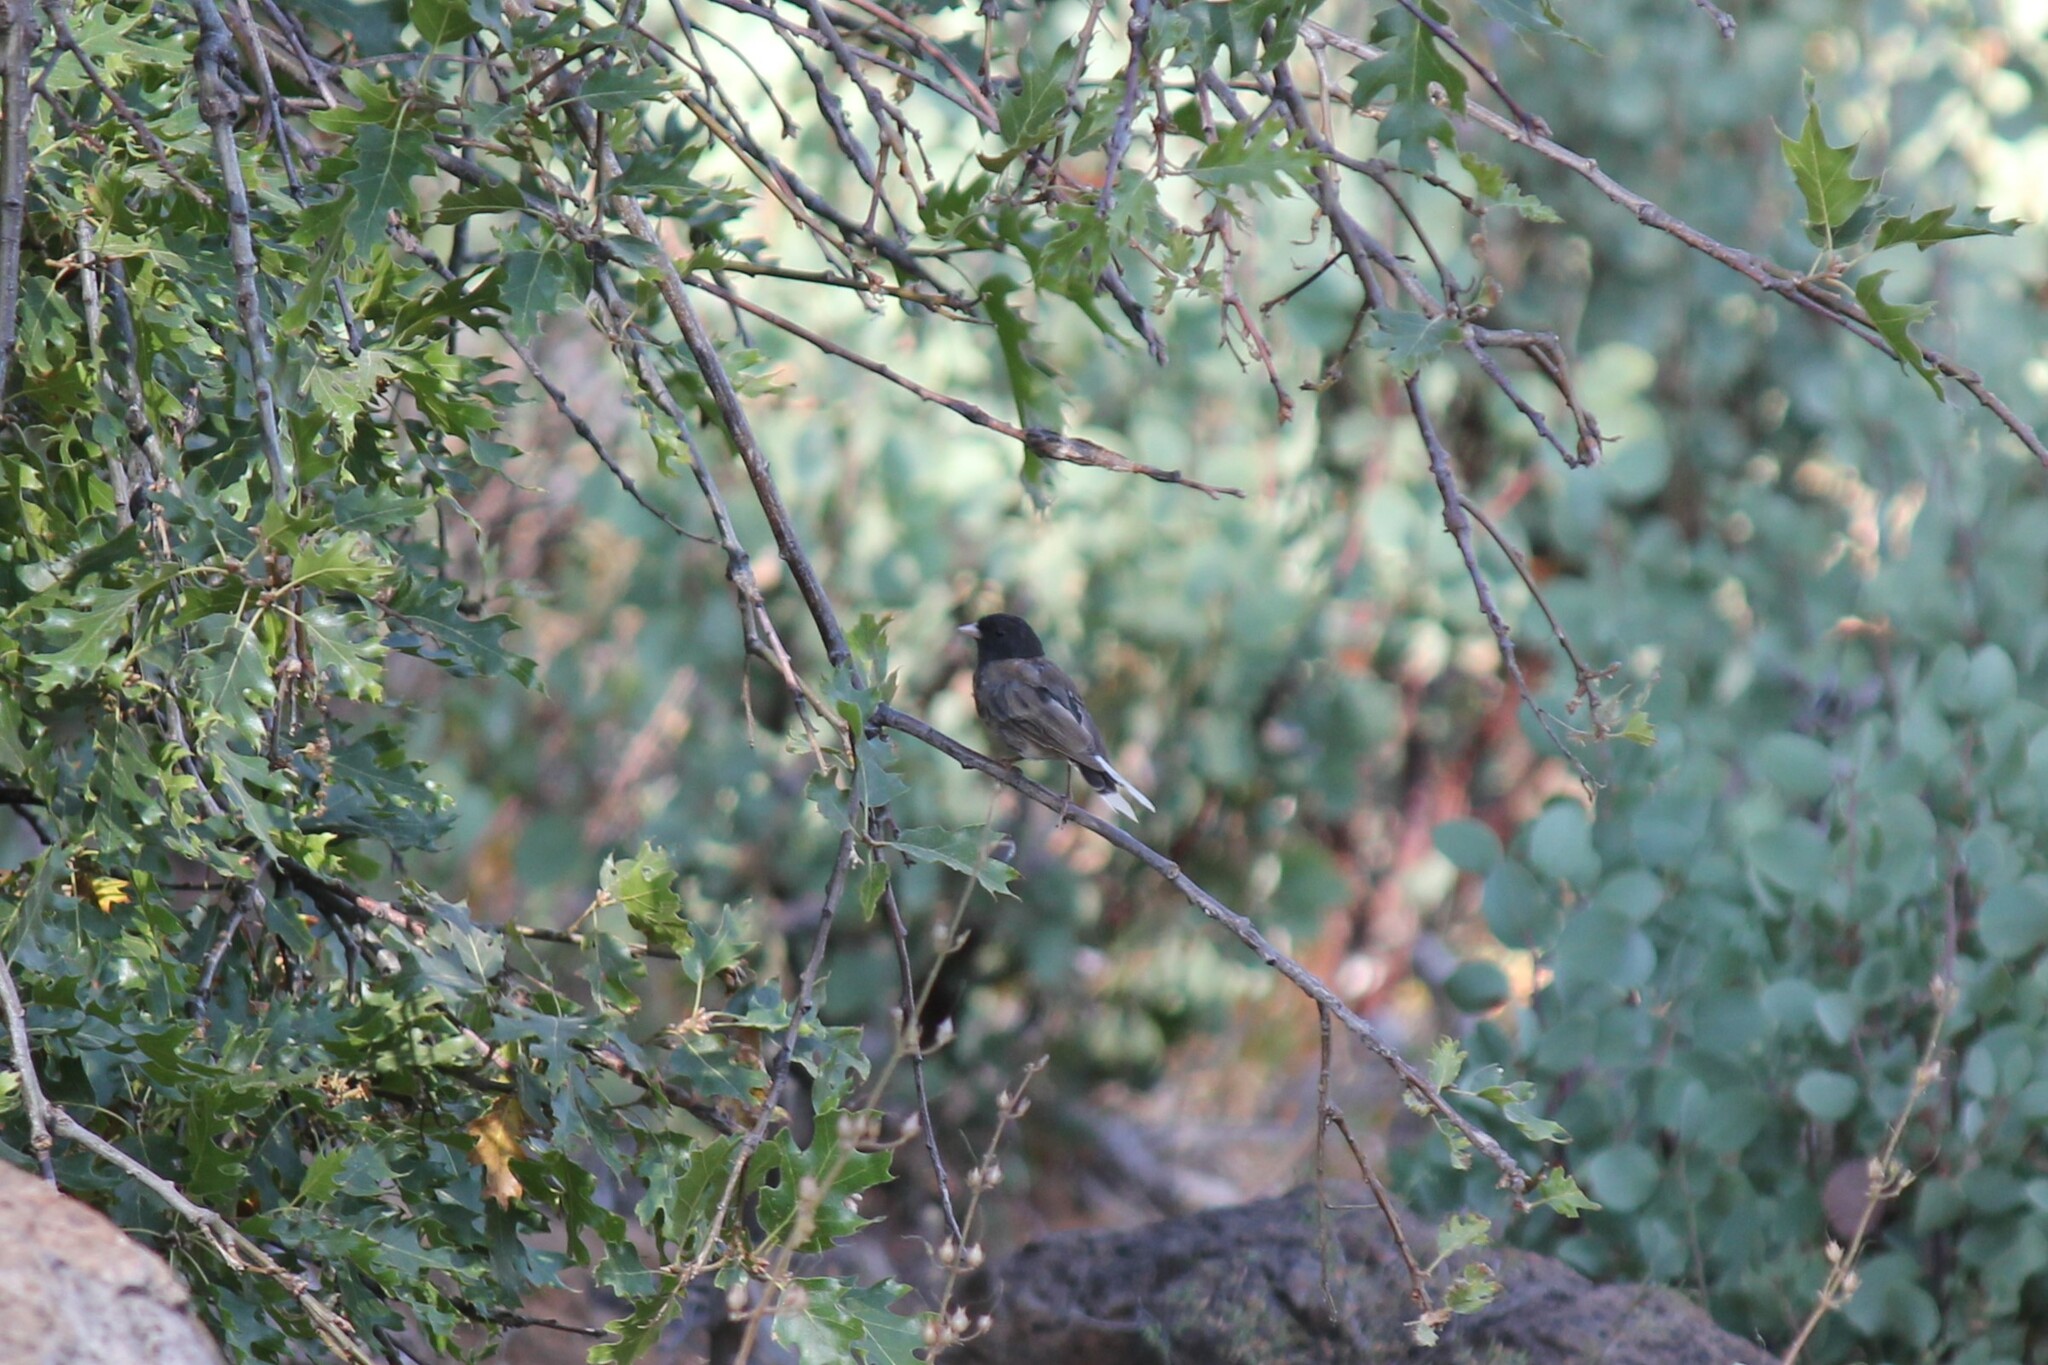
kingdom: Animalia
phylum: Chordata
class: Aves
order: Passeriformes
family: Passerellidae
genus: Junco
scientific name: Junco hyemalis
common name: Dark-eyed junco
